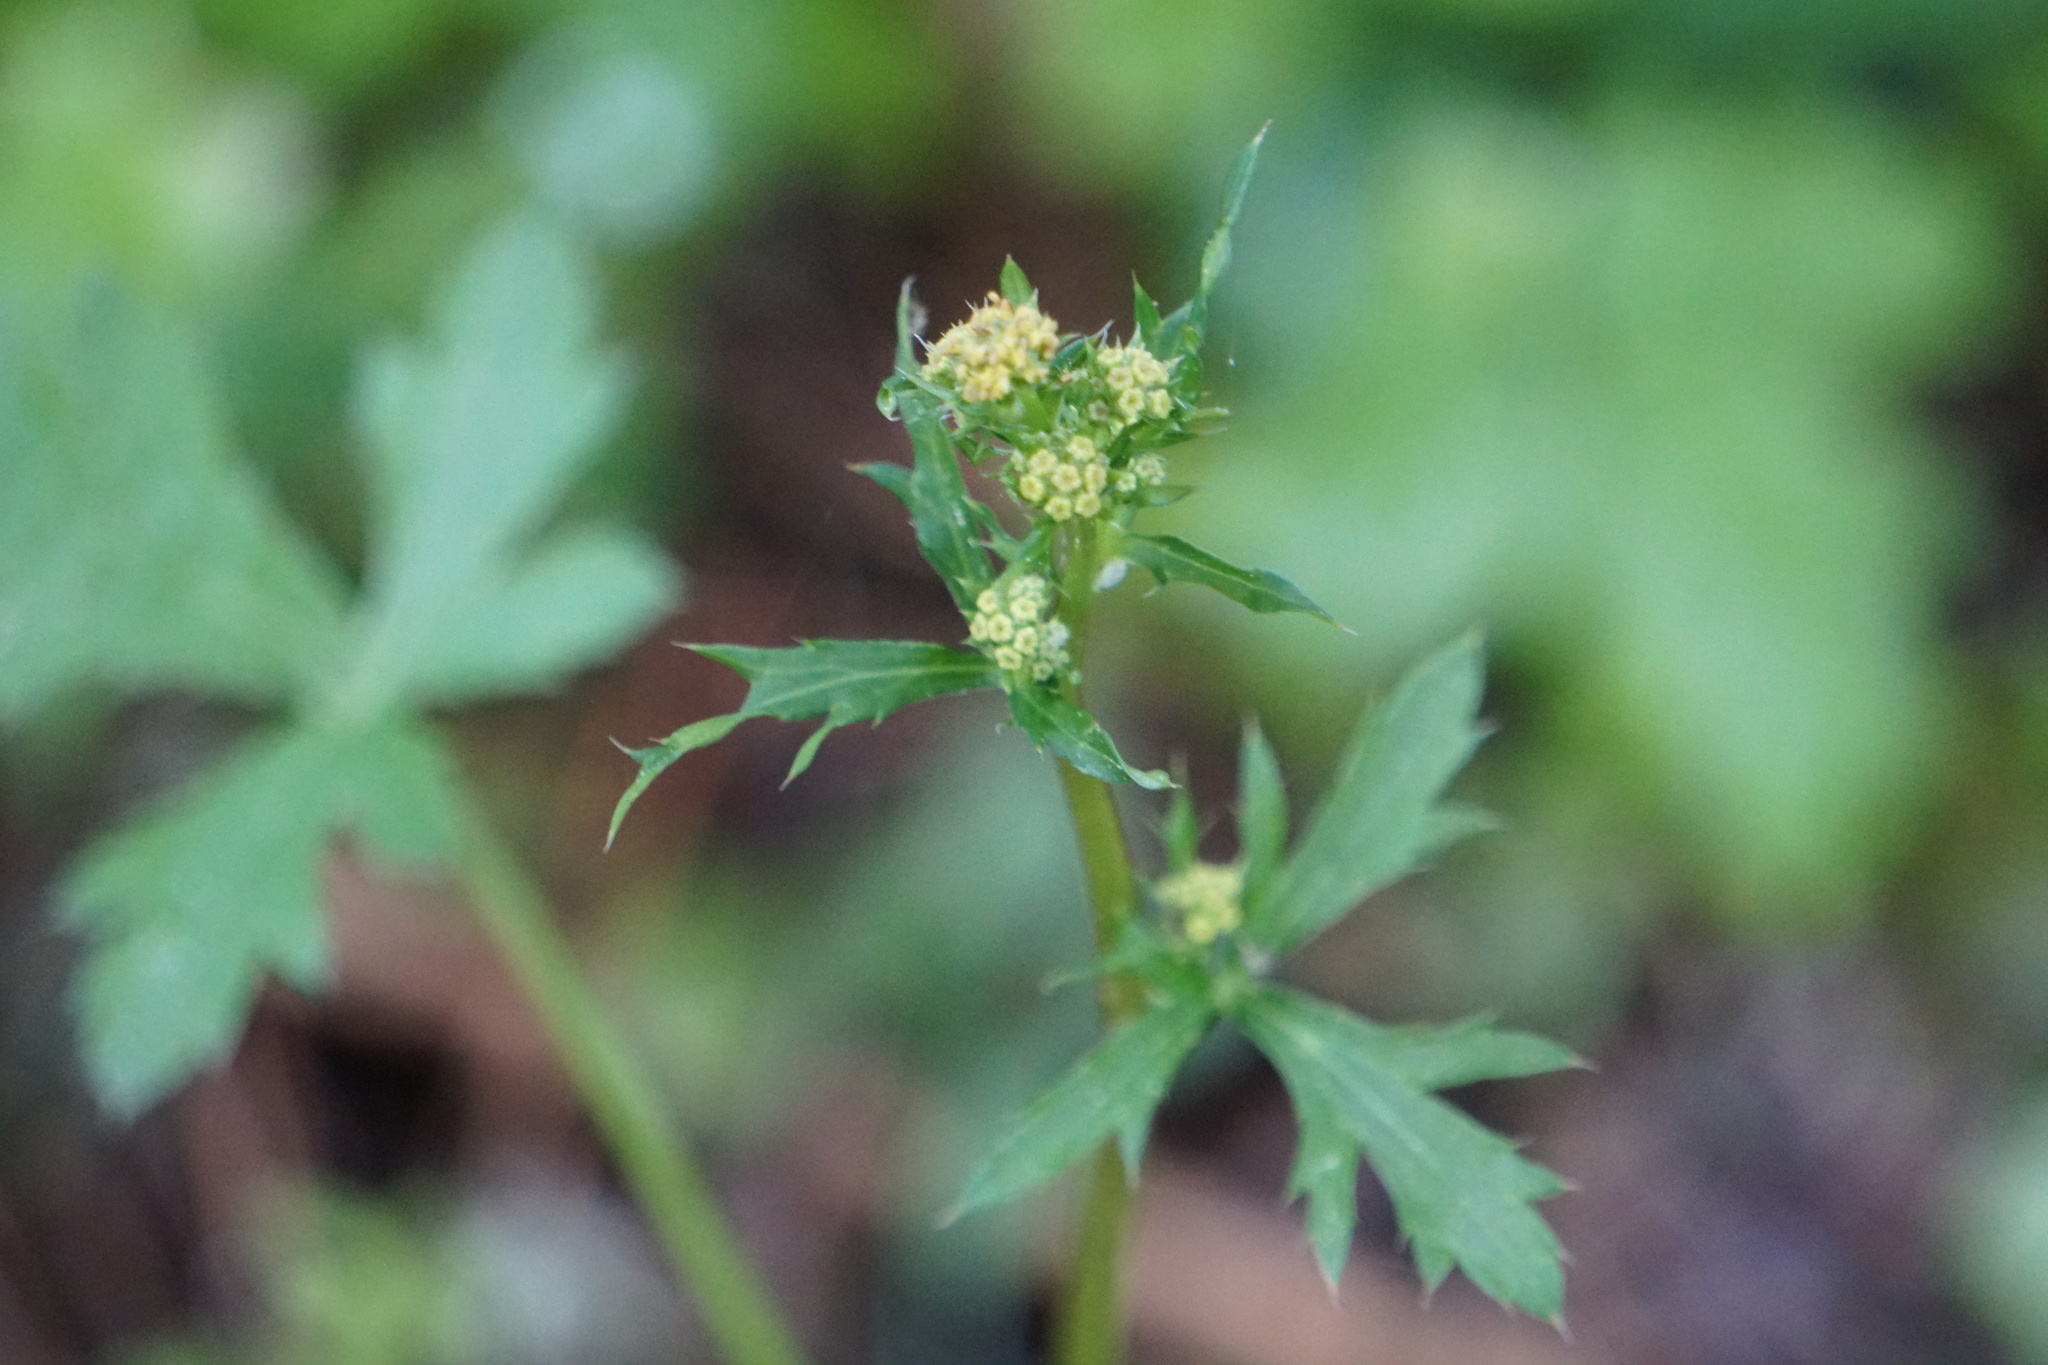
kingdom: Plantae
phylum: Tracheophyta
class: Magnoliopsida
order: Apiales
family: Apiaceae
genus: Sanicula
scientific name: Sanicula crassicaulis
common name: Western snakeroot
